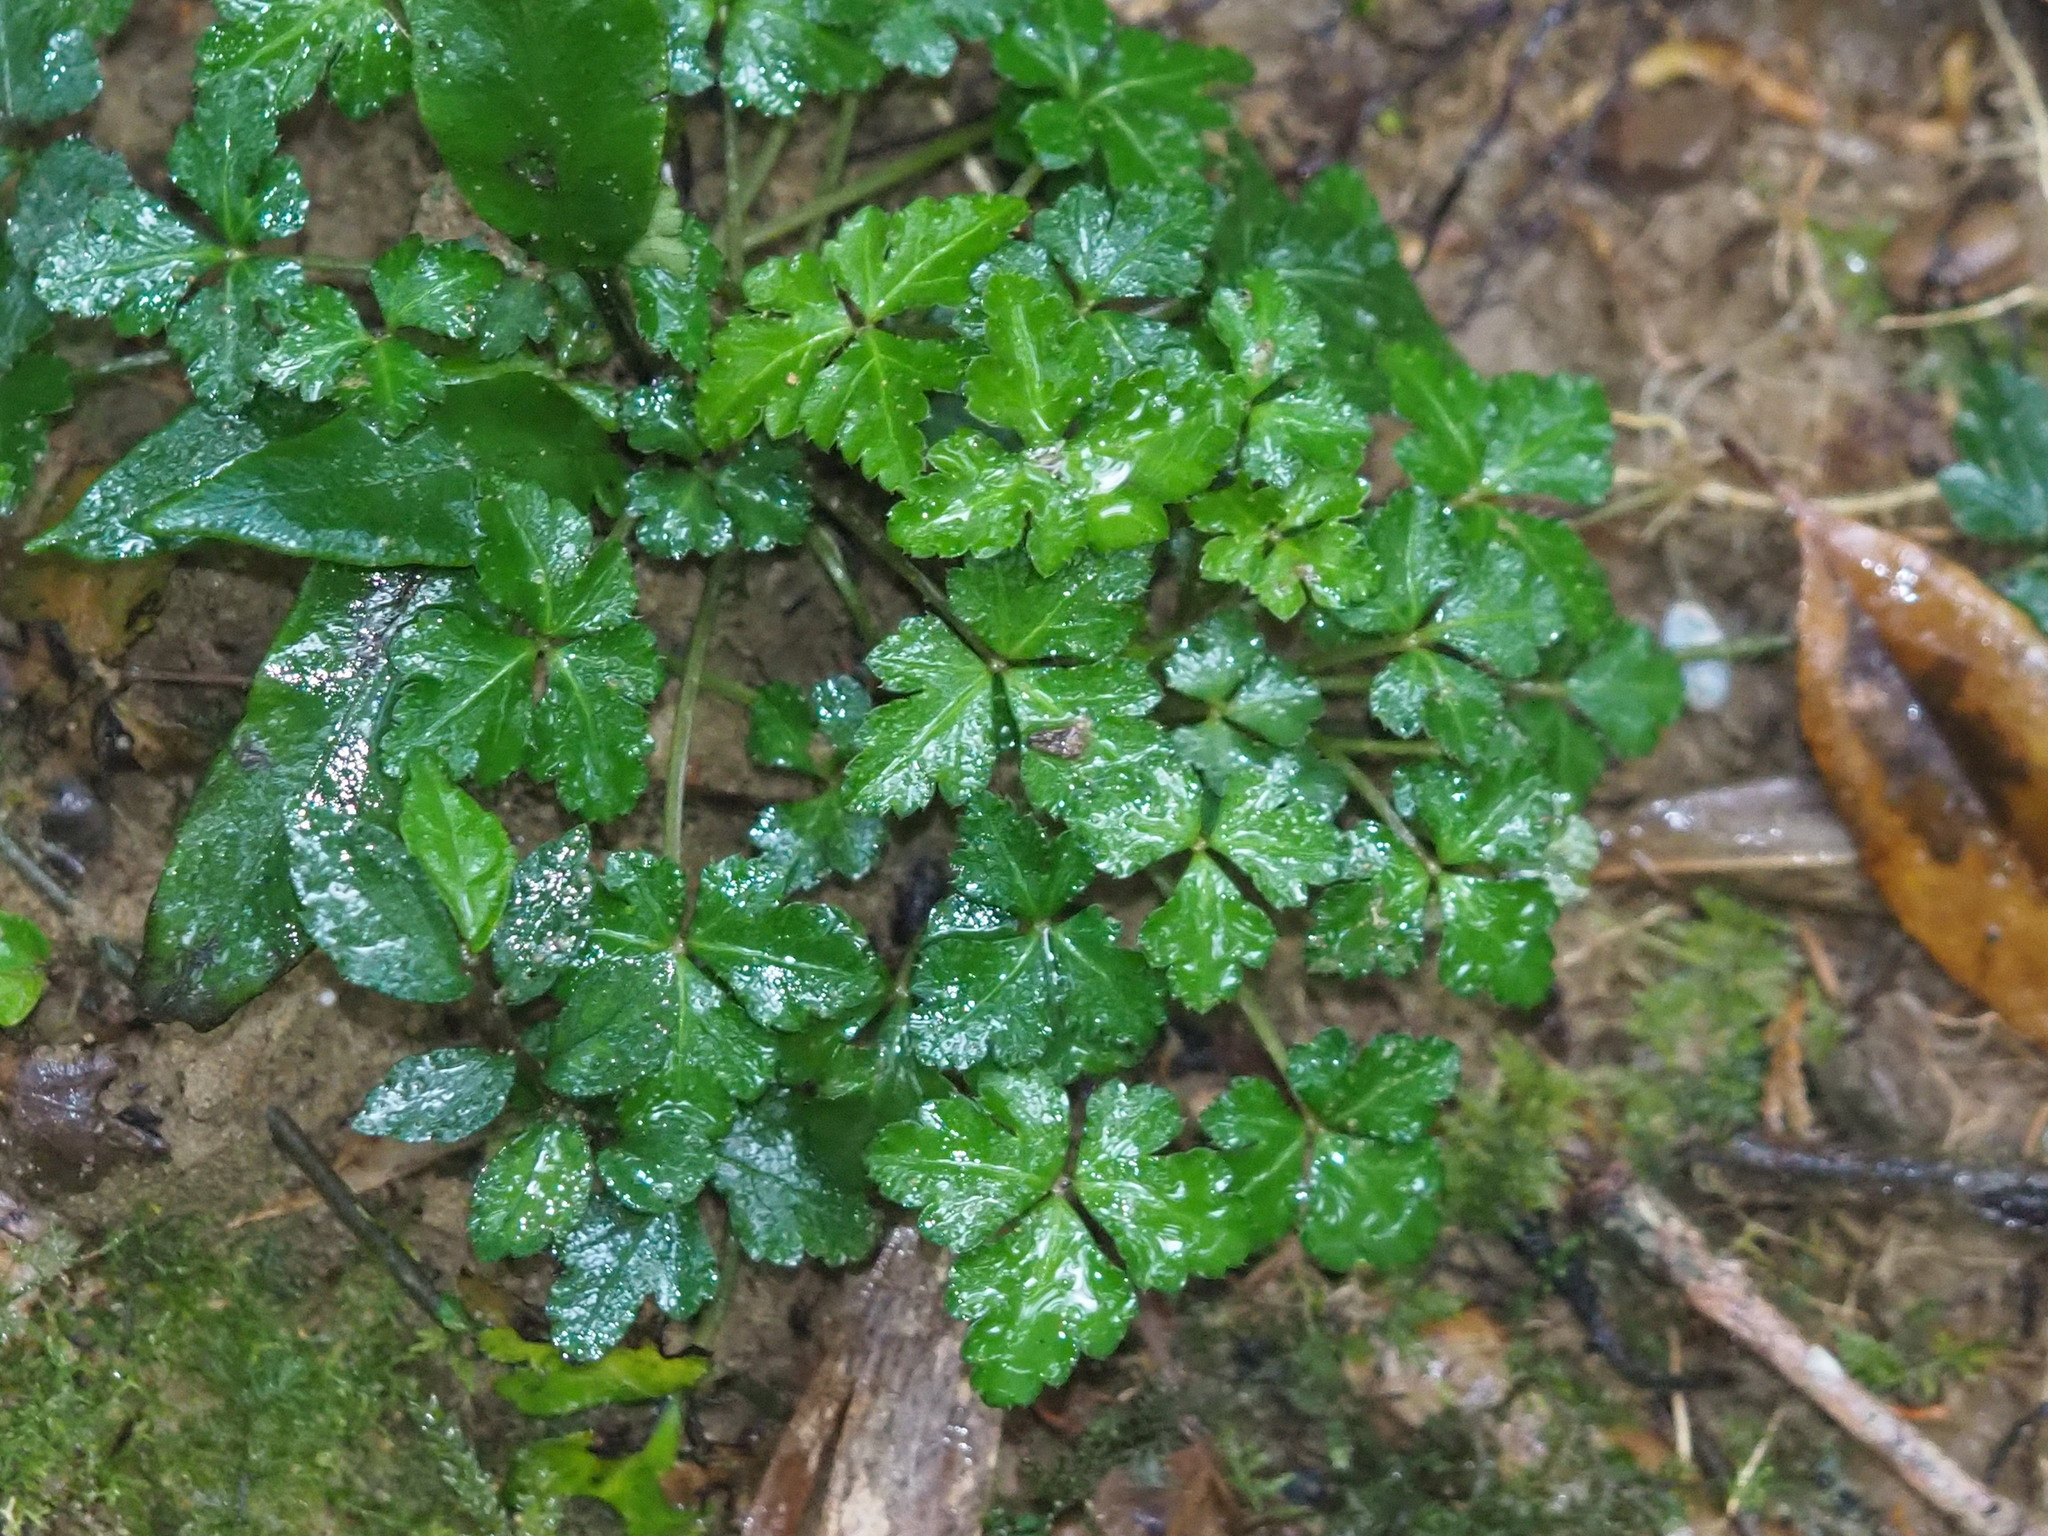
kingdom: Plantae
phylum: Tracheophyta
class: Magnoliopsida
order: Apiales
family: Apiaceae
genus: Sanicula
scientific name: Sanicula lamelligera
